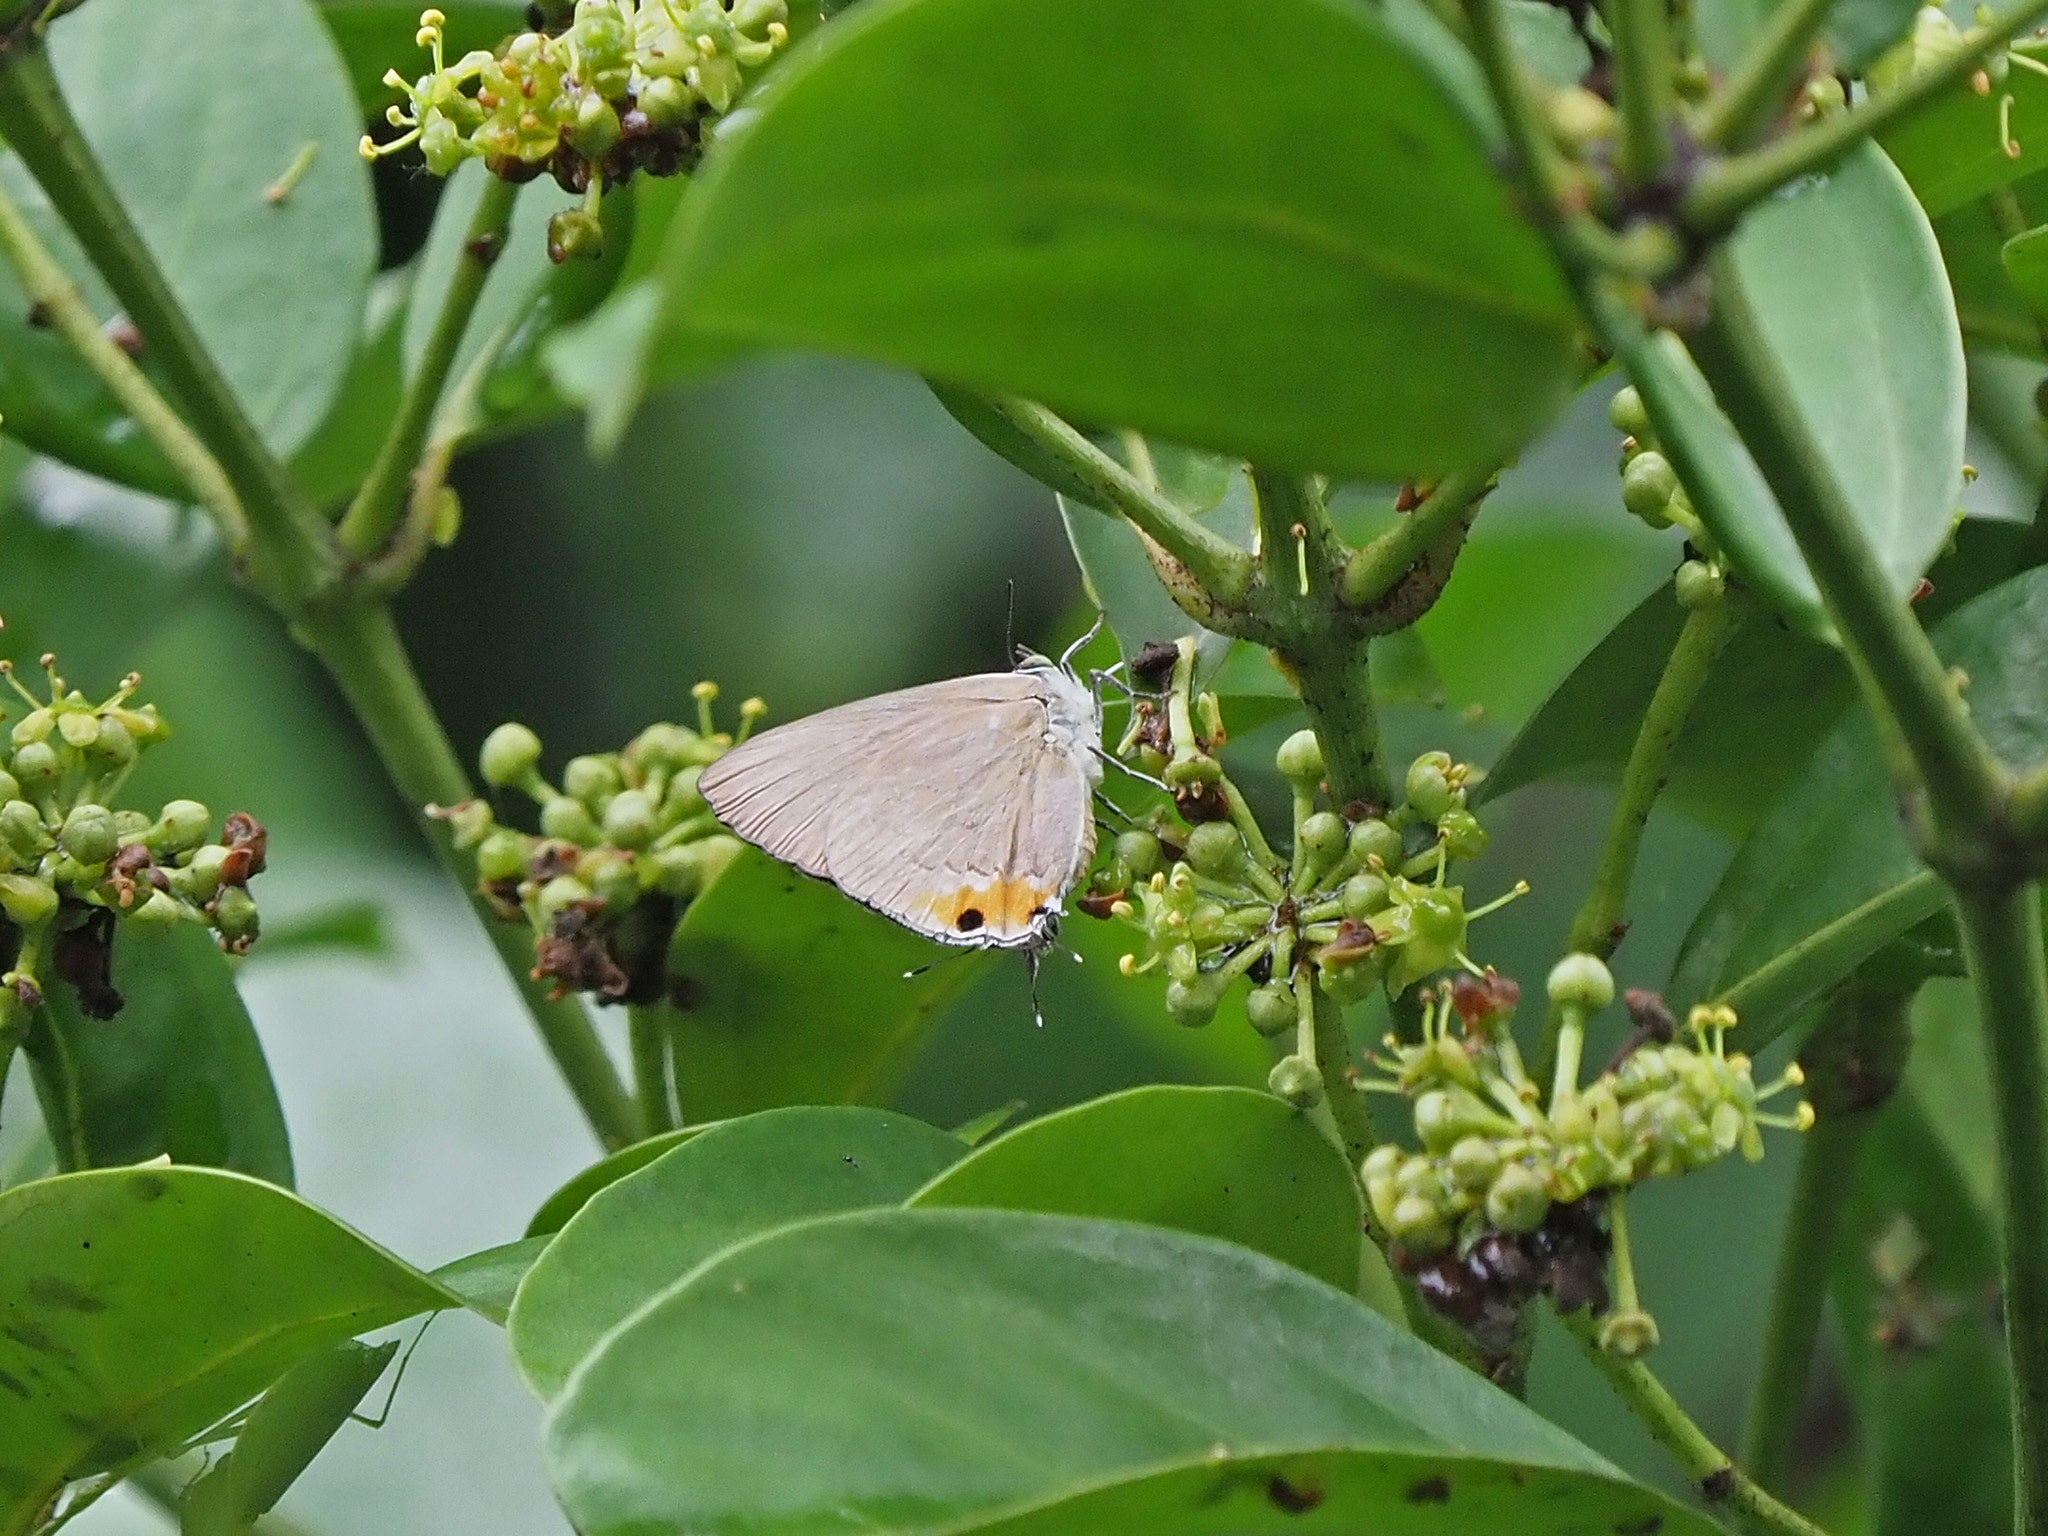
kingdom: Animalia
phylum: Arthropoda
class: Insecta
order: Lepidoptera
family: Lycaenidae
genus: Ancema
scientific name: Ancema blanka
